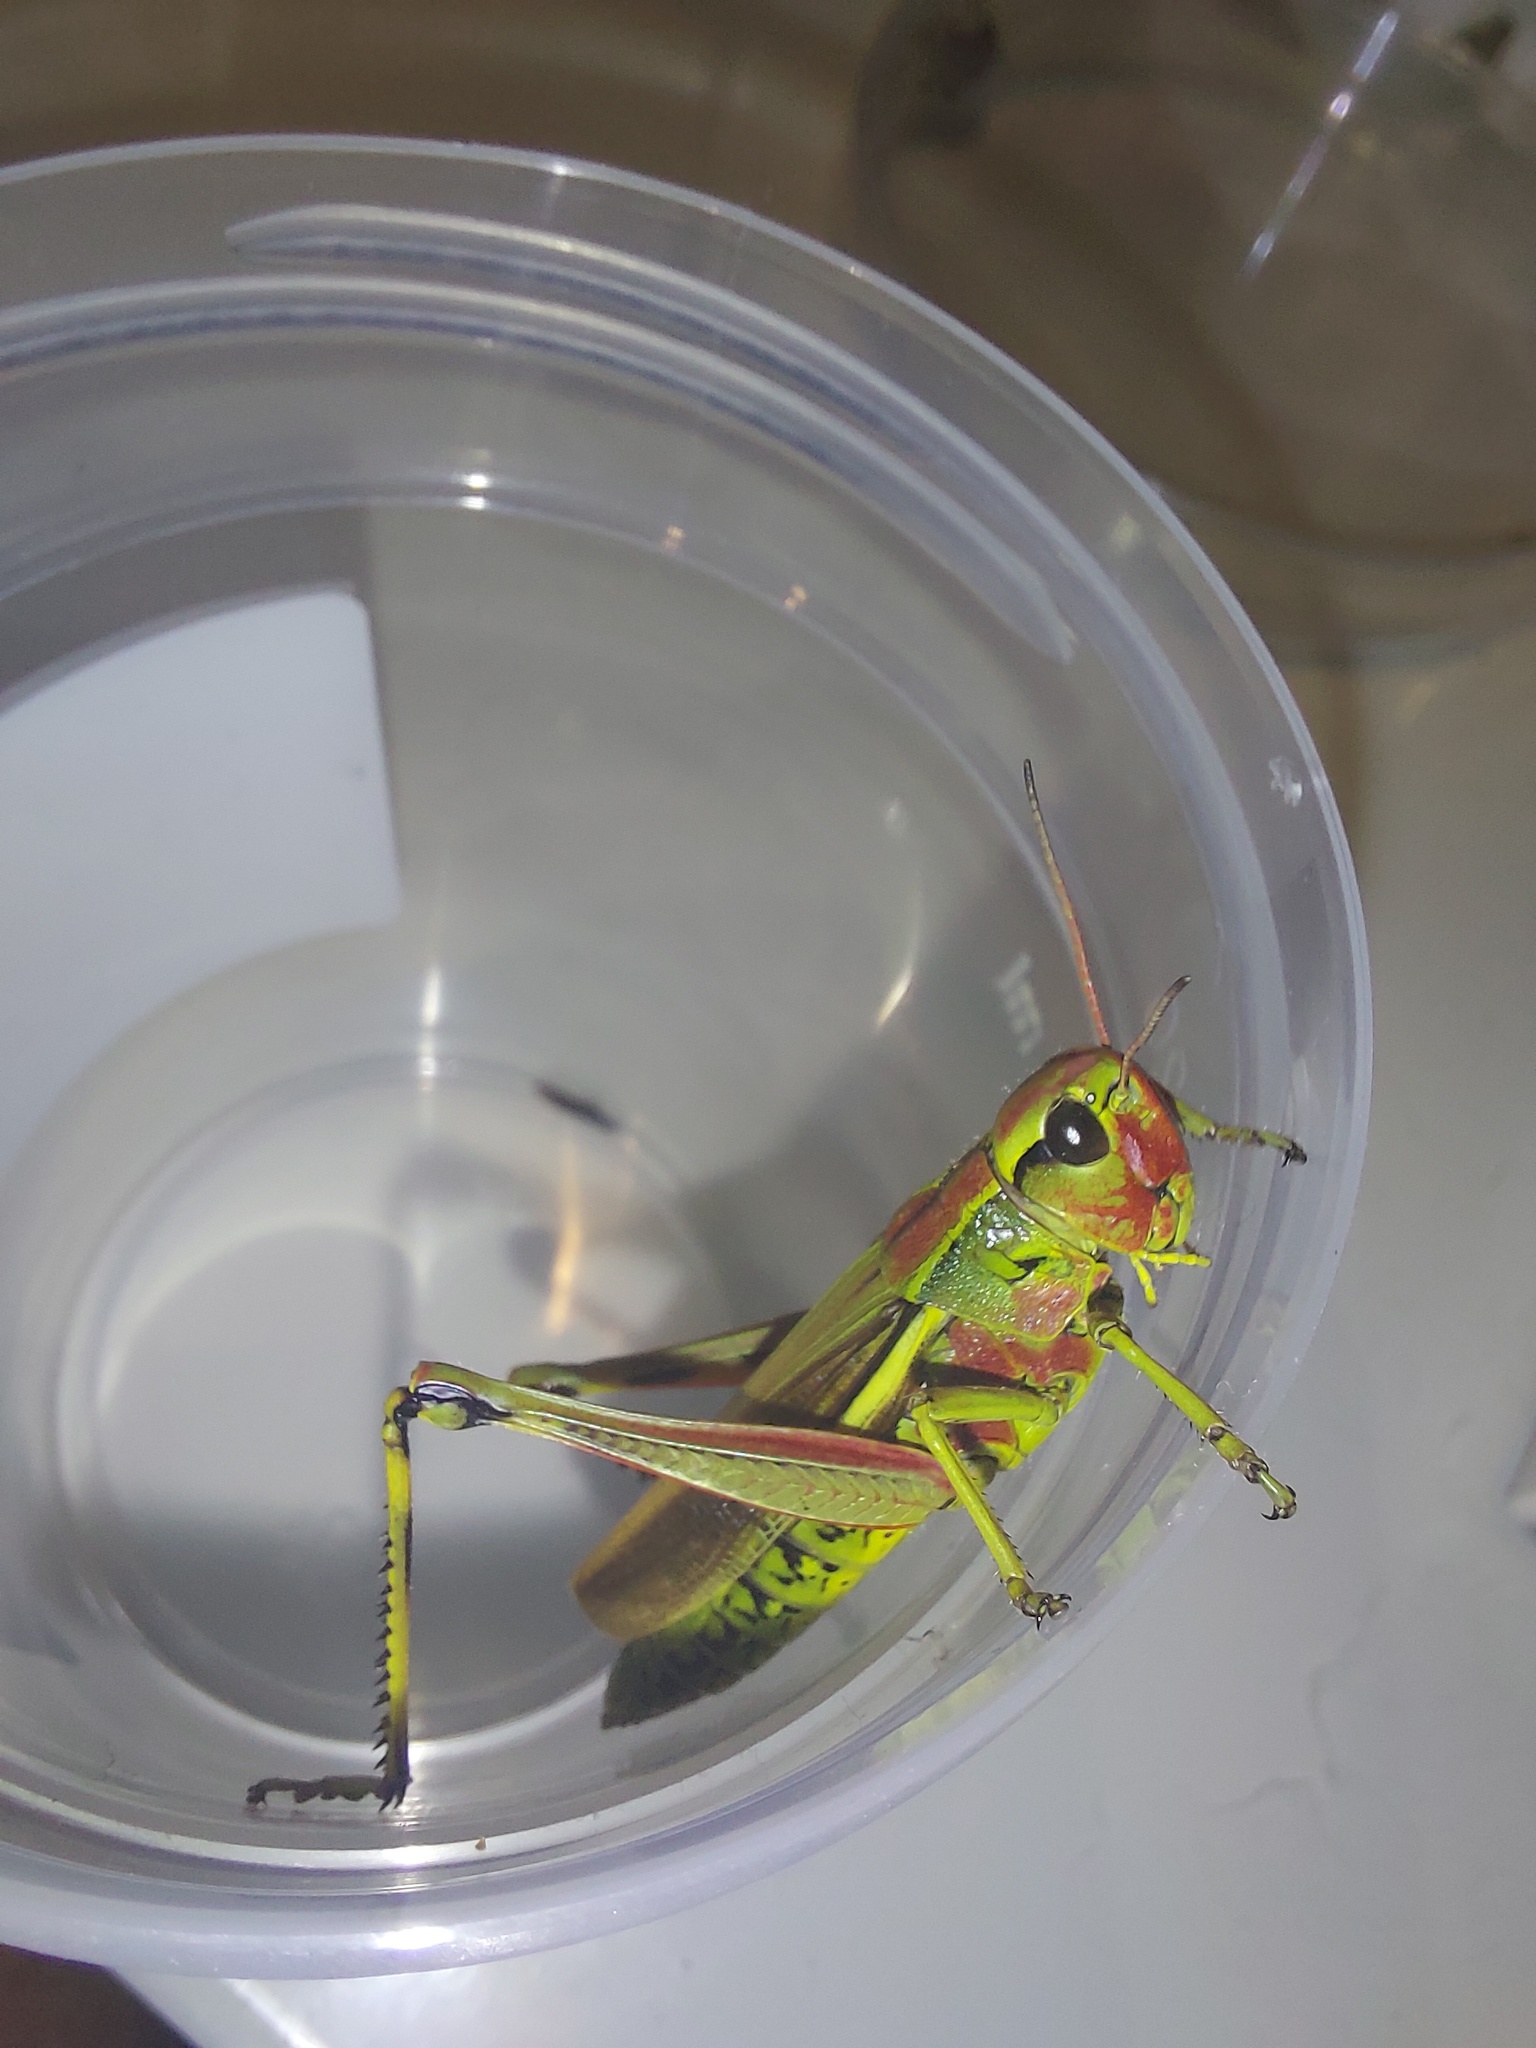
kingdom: Animalia
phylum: Arthropoda
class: Insecta
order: Orthoptera
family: Acrididae
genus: Stethophyma
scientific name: Stethophyma grossum
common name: Large marsh grasshopper
